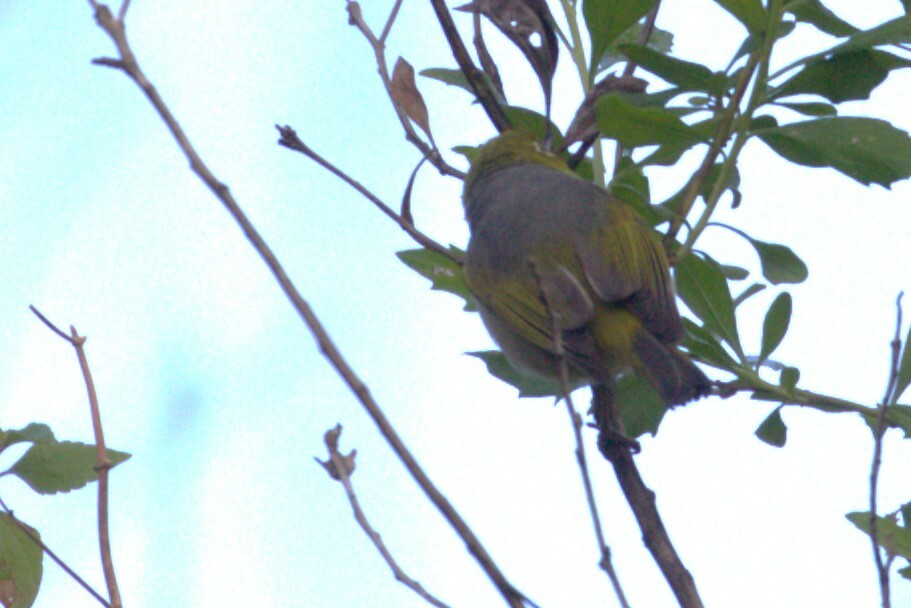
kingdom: Animalia
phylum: Chordata
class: Aves
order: Passeriformes
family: Zosteropidae
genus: Zosterops
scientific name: Zosterops lateralis
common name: Silvereye
